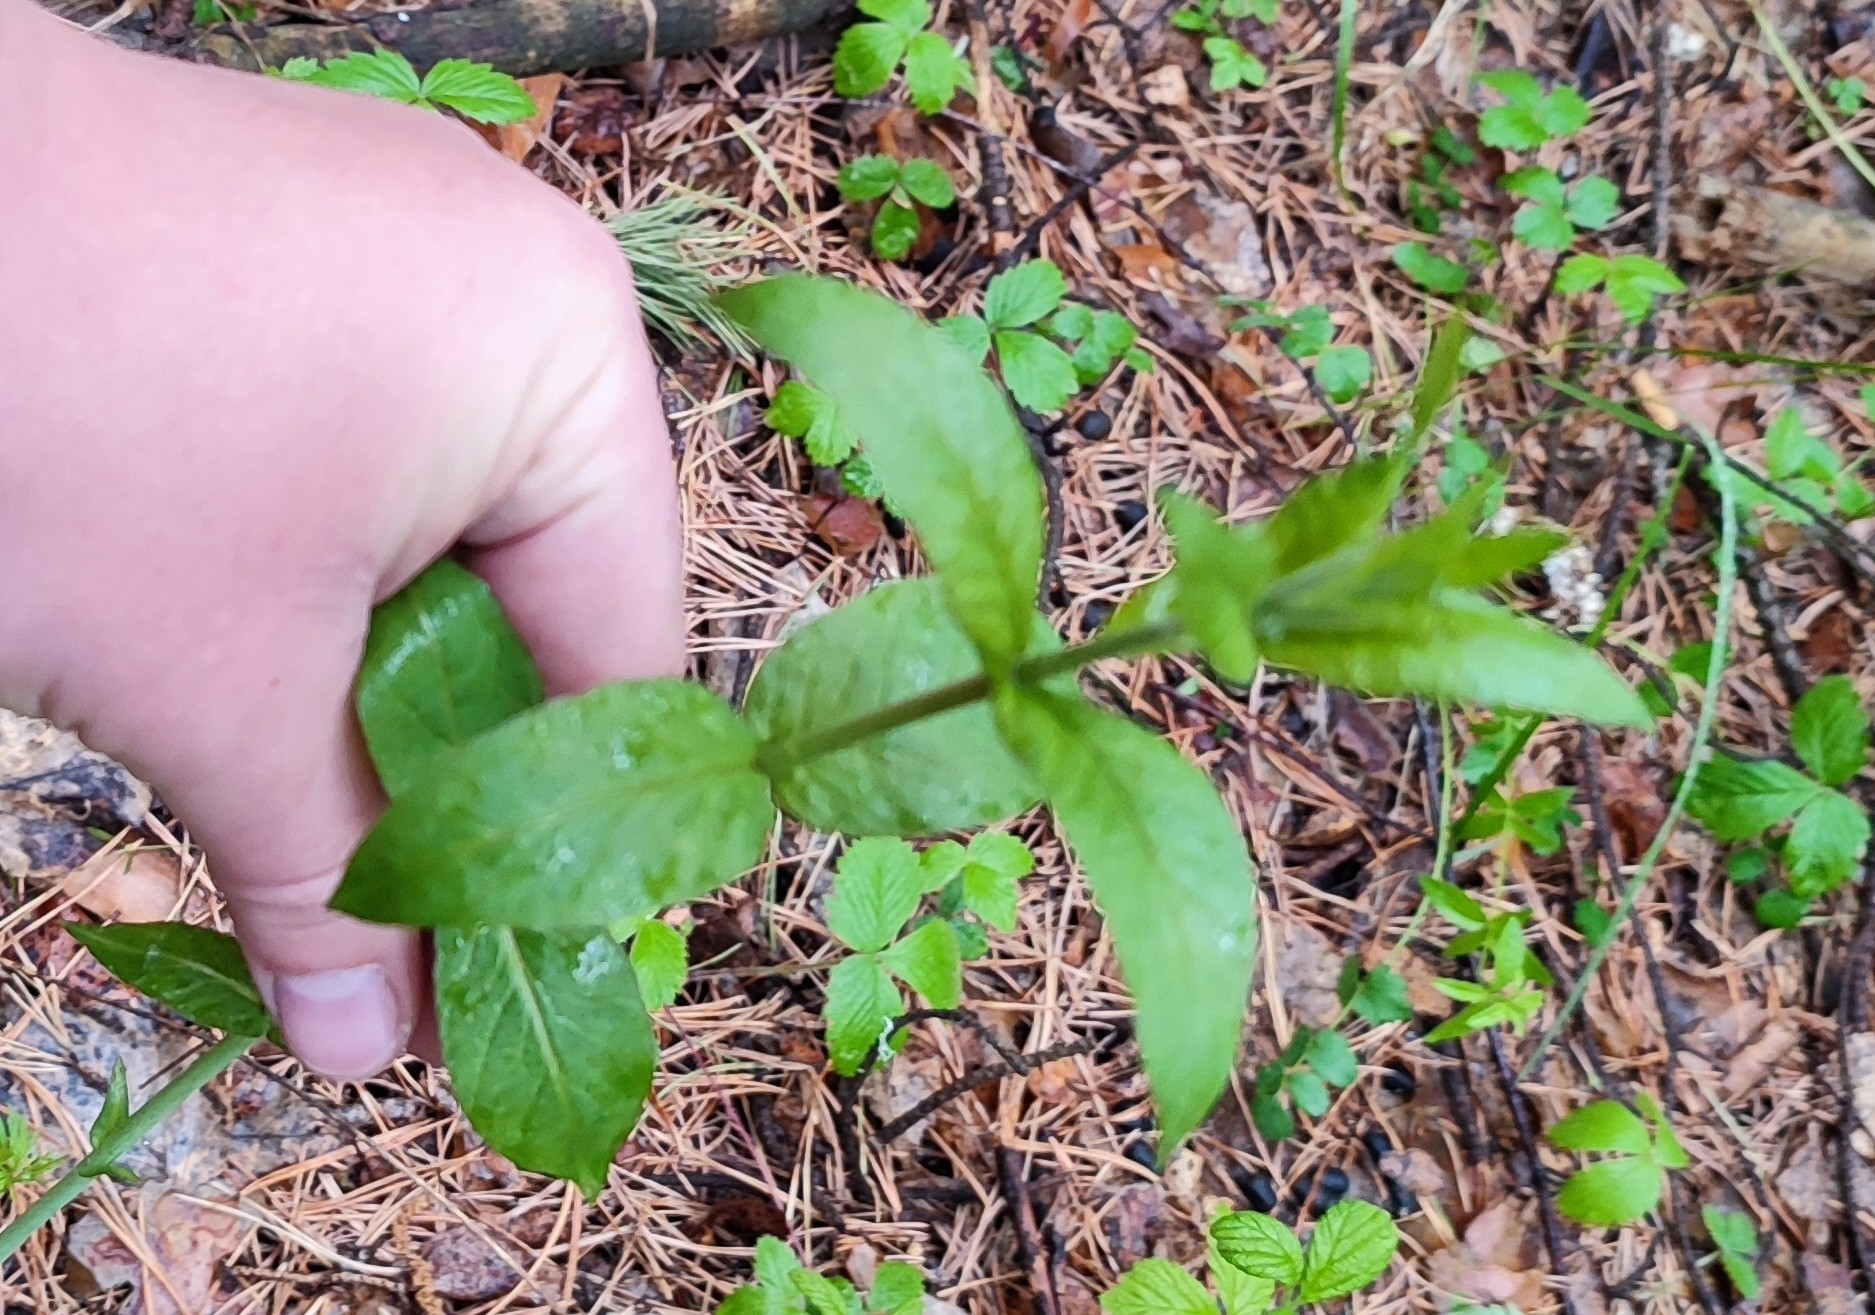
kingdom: Plantae
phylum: Tracheophyta
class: Magnoliopsida
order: Ericales
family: Primulaceae
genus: Lysimachia
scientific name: Lysimachia vulgaris
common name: Yellow loosestrife
